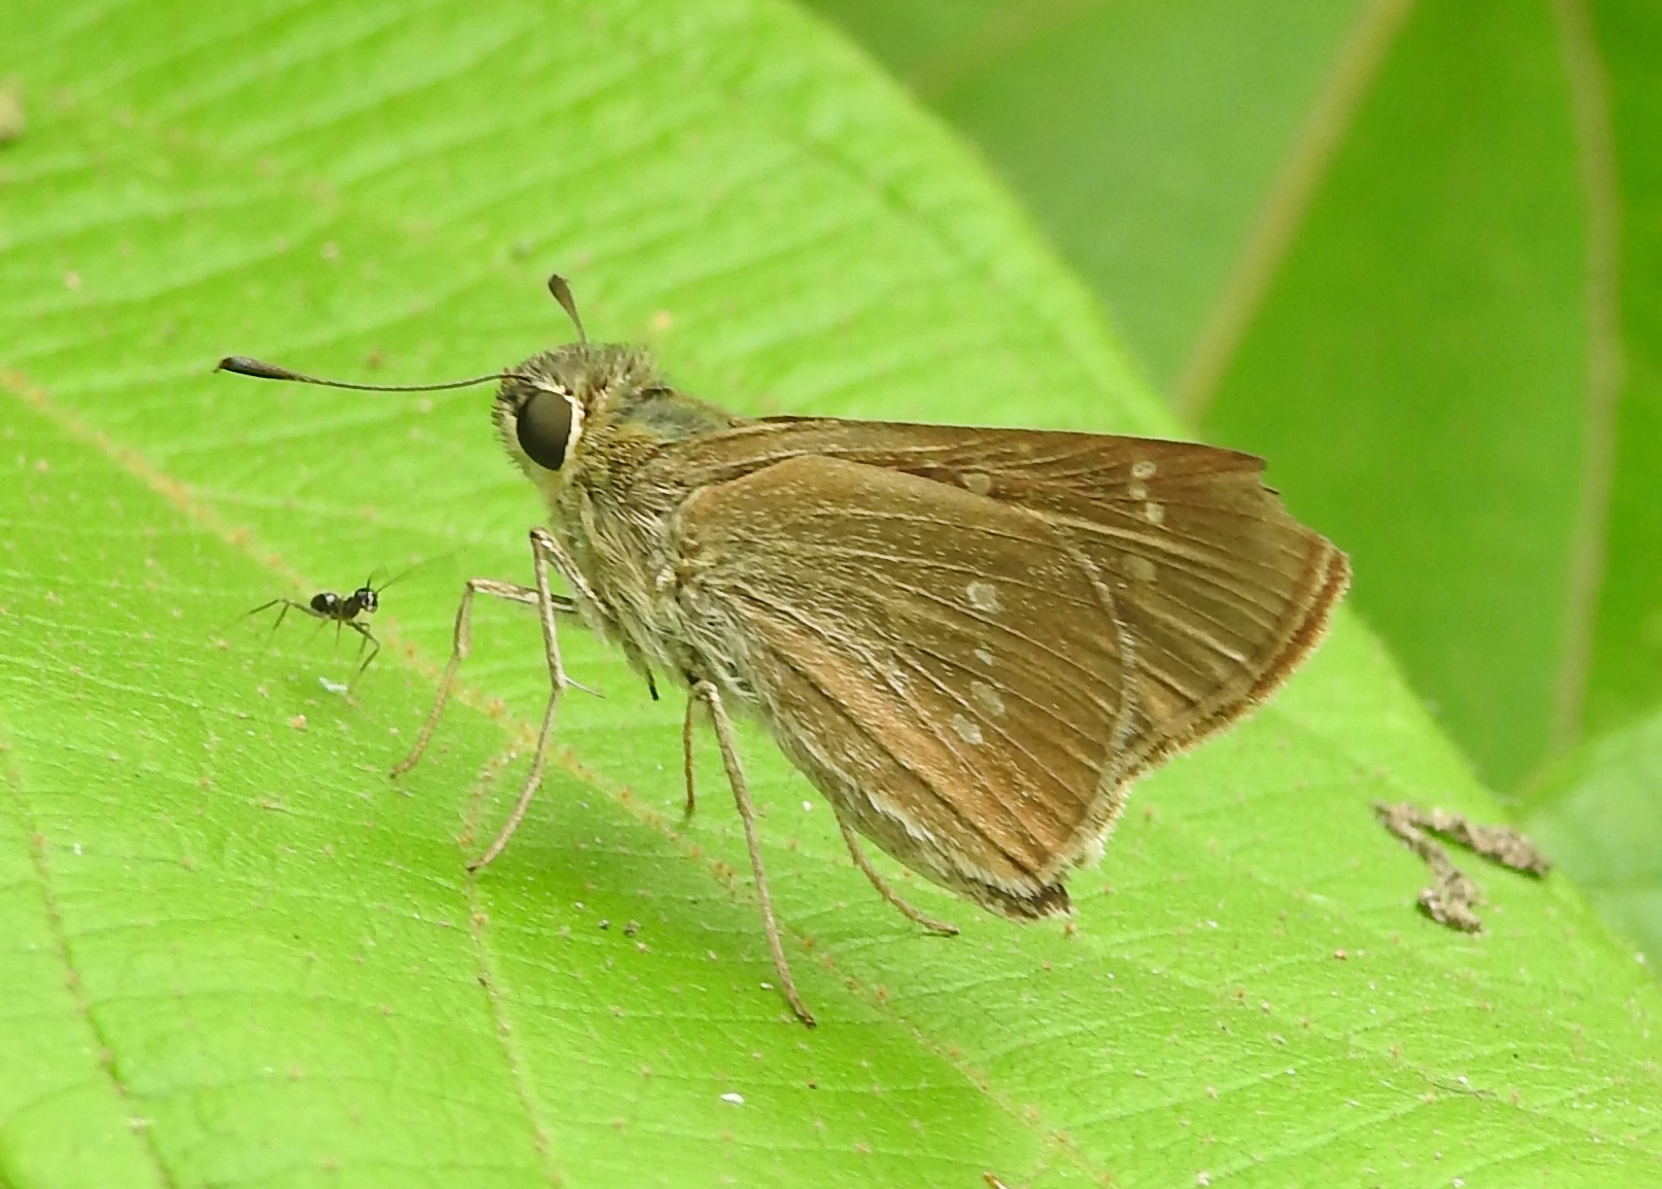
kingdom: Animalia
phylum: Arthropoda
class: Insecta
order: Lepidoptera
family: Hesperiidae
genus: Borbo
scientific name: Borbo cinnara
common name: Formosan swift
